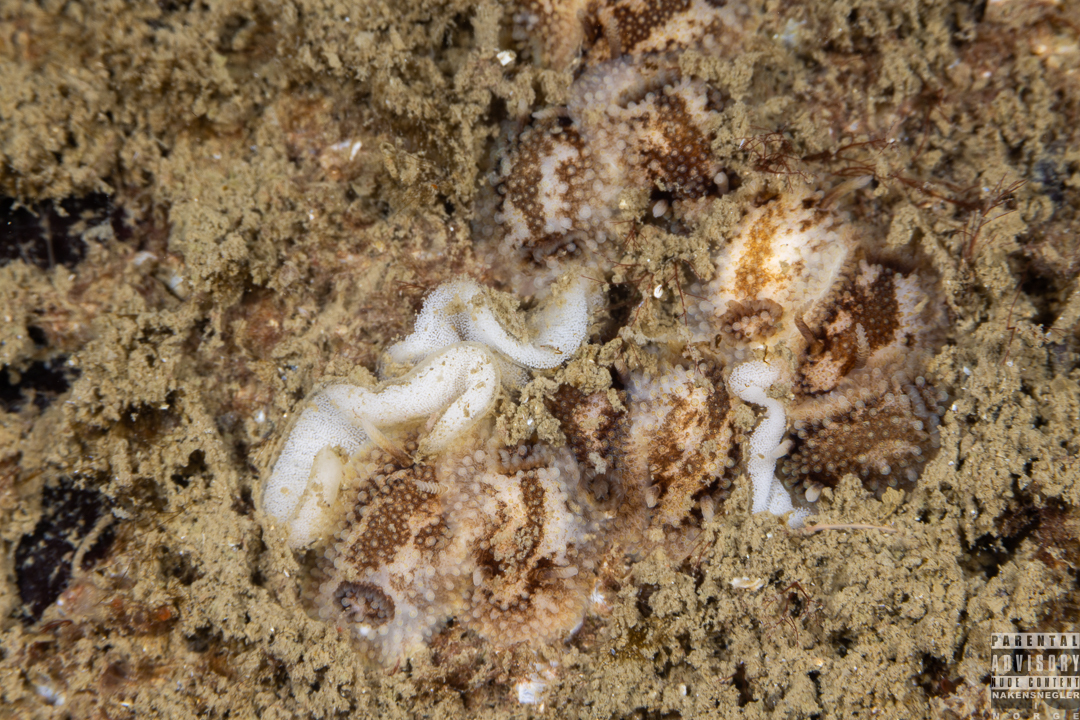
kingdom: Animalia
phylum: Mollusca
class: Gastropoda
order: Nudibranchia
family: Onchidorididae
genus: Onchidoris
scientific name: Onchidoris bilamellata
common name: Barnacle-eating onchidoris
